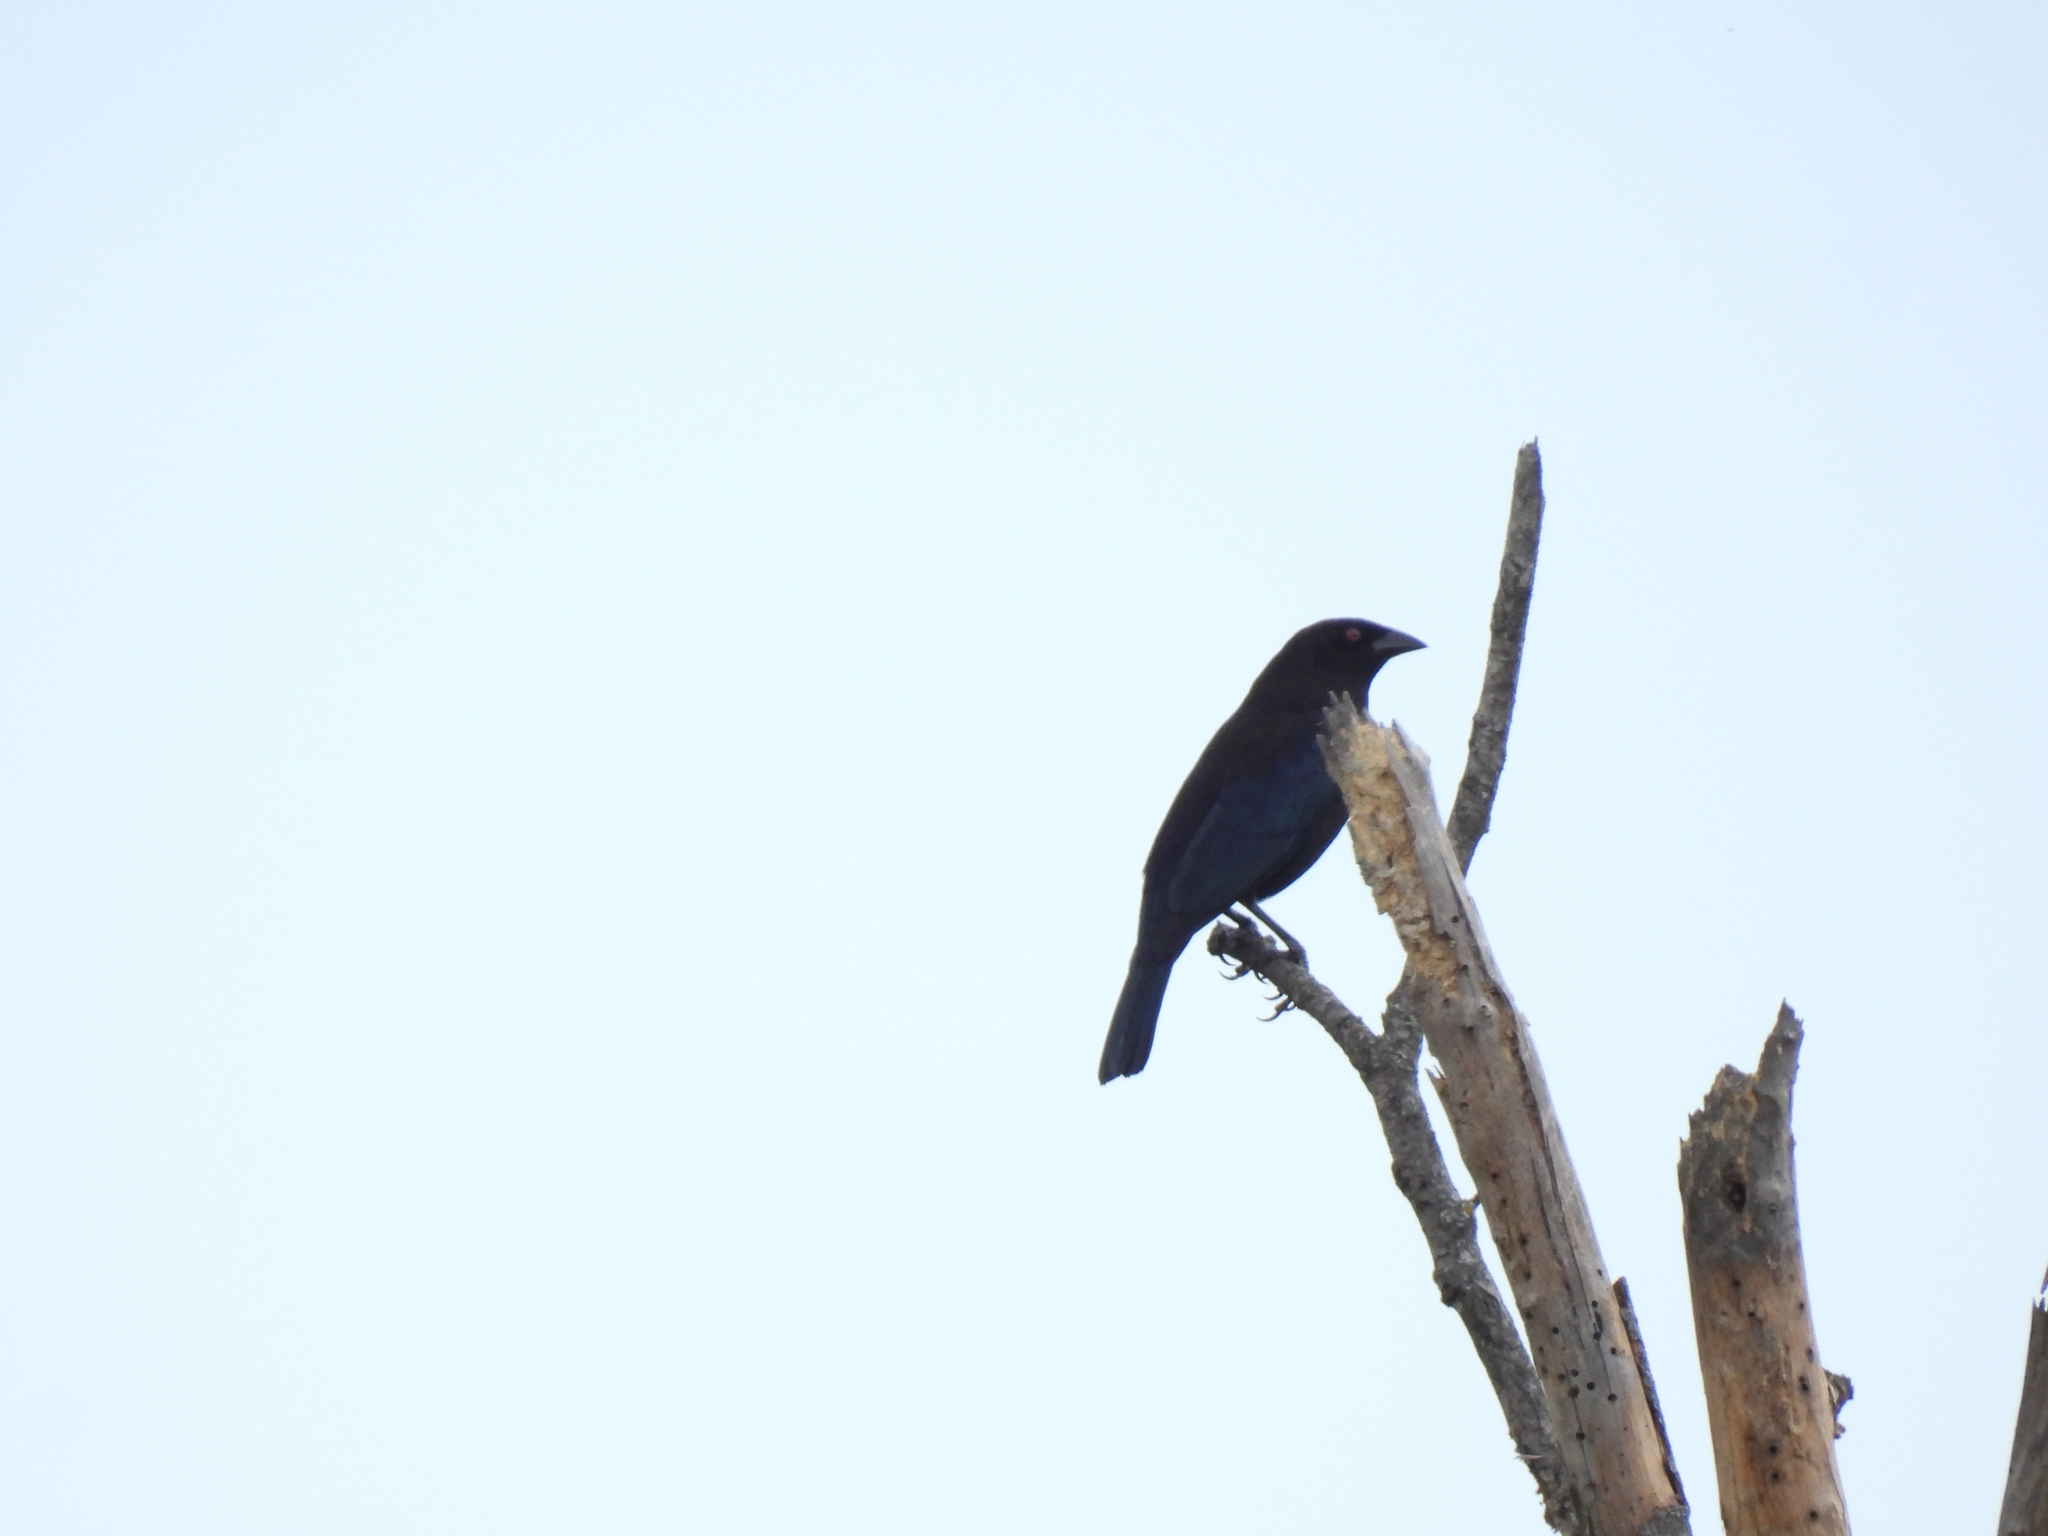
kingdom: Animalia
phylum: Chordata
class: Aves
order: Passeriformes
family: Icteridae
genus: Molothrus
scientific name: Molothrus aeneus
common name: Bronzed cowbird
